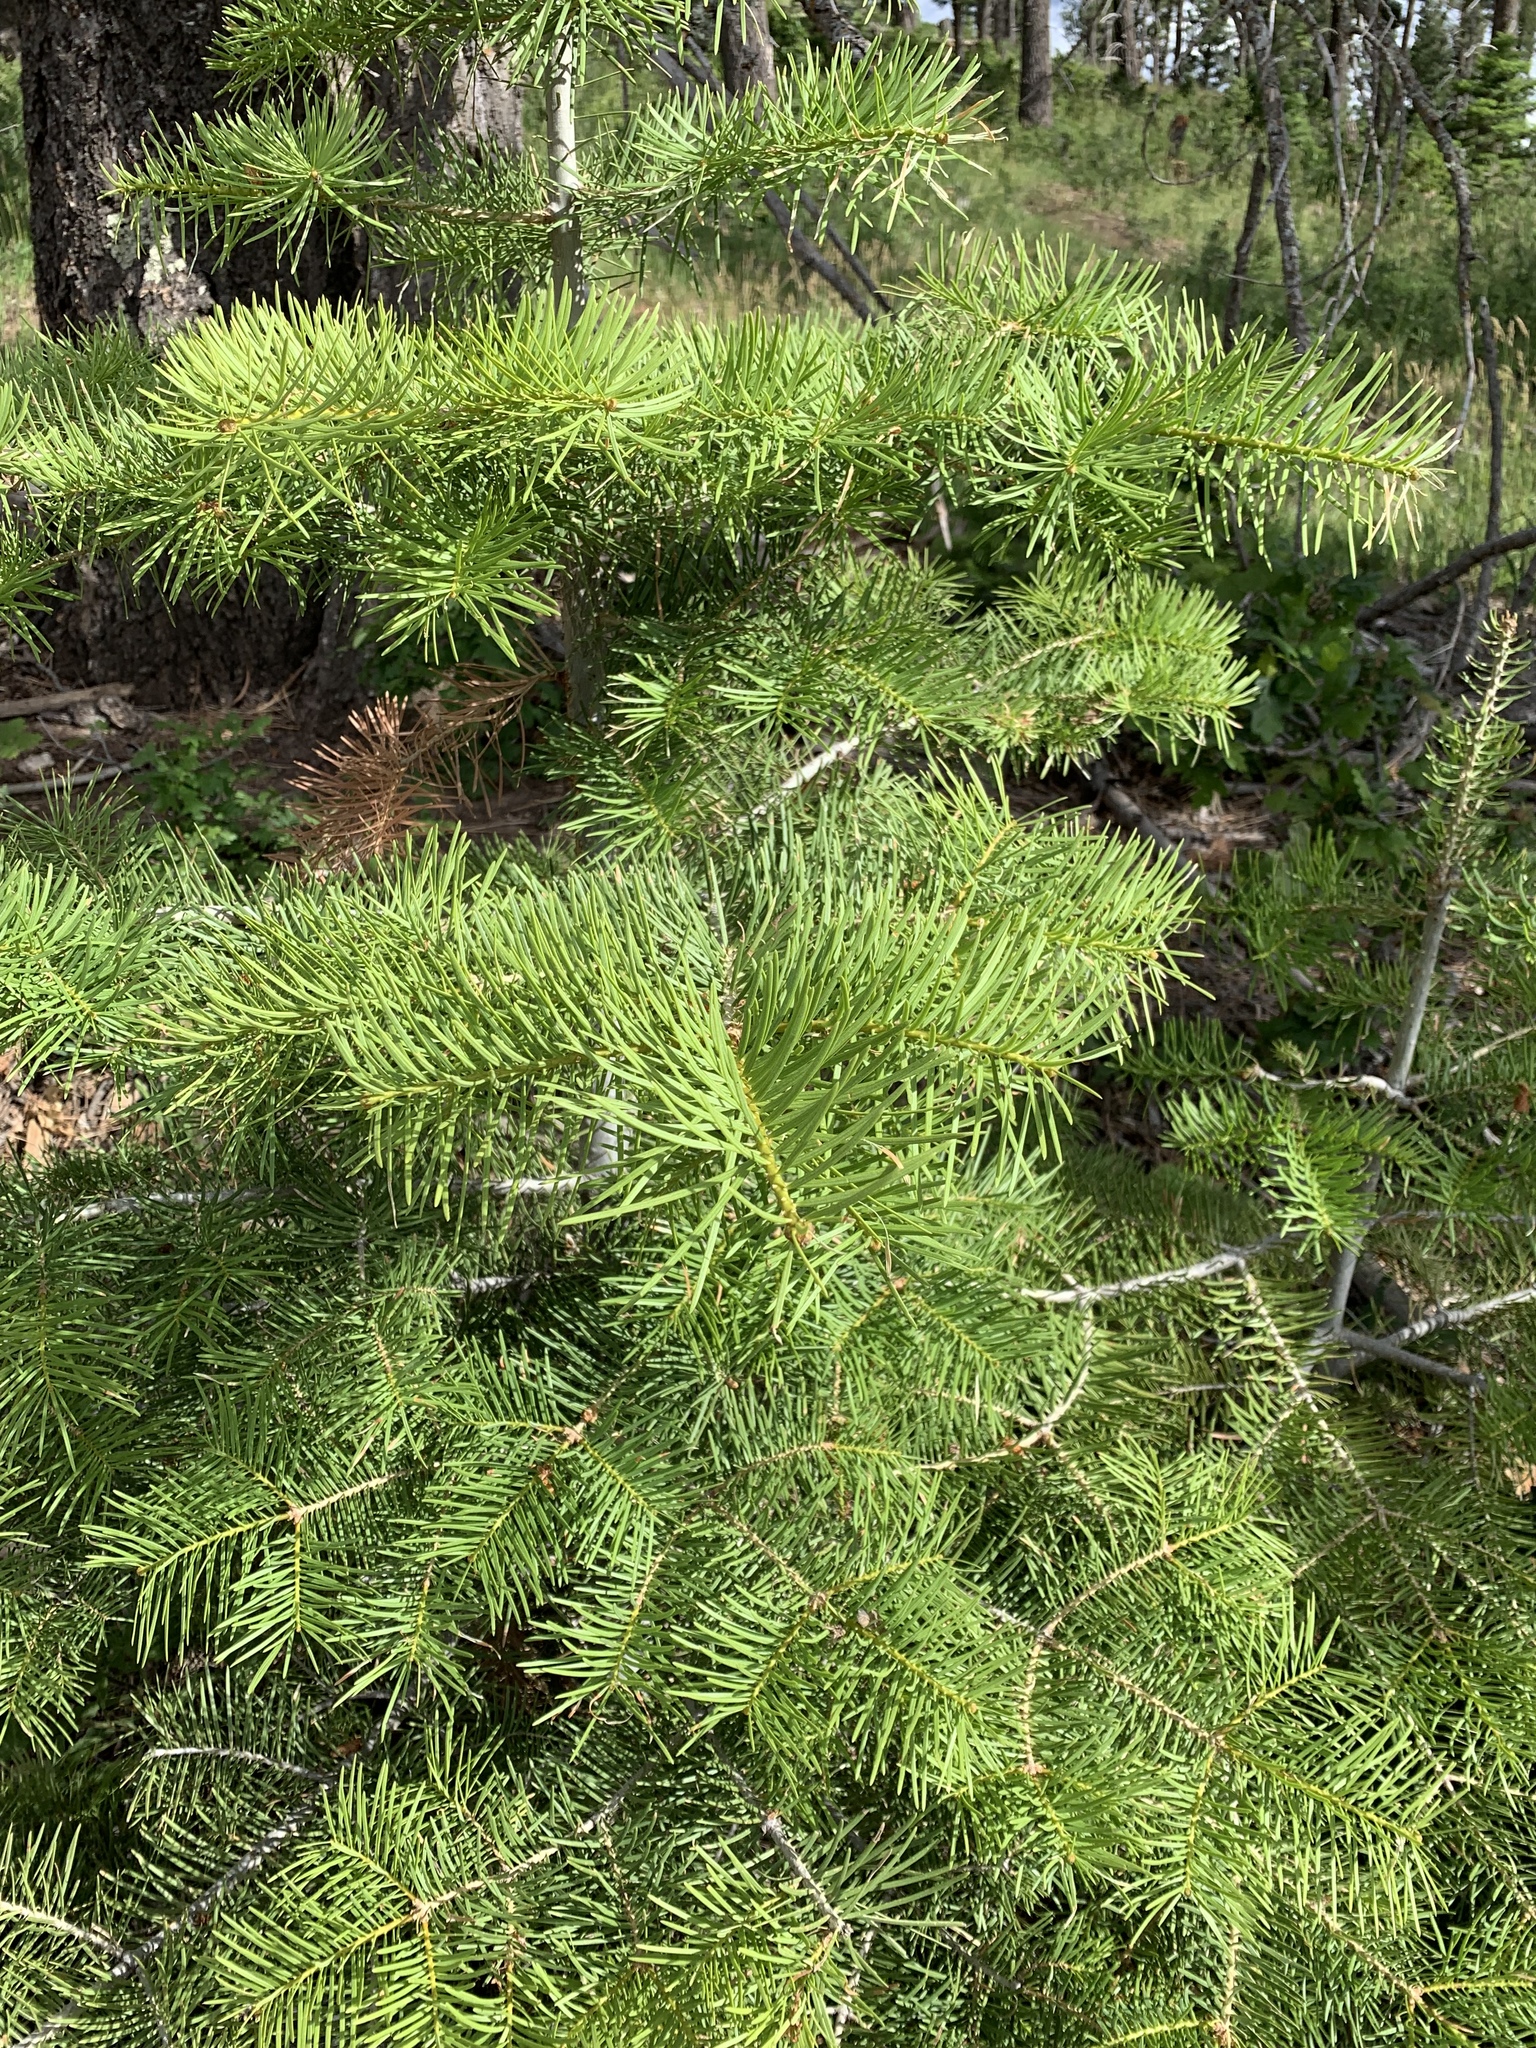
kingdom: Plantae
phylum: Tracheophyta
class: Pinopsida
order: Pinales
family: Pinaceae
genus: Abies
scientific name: Abies concolor
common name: Colorado fir
